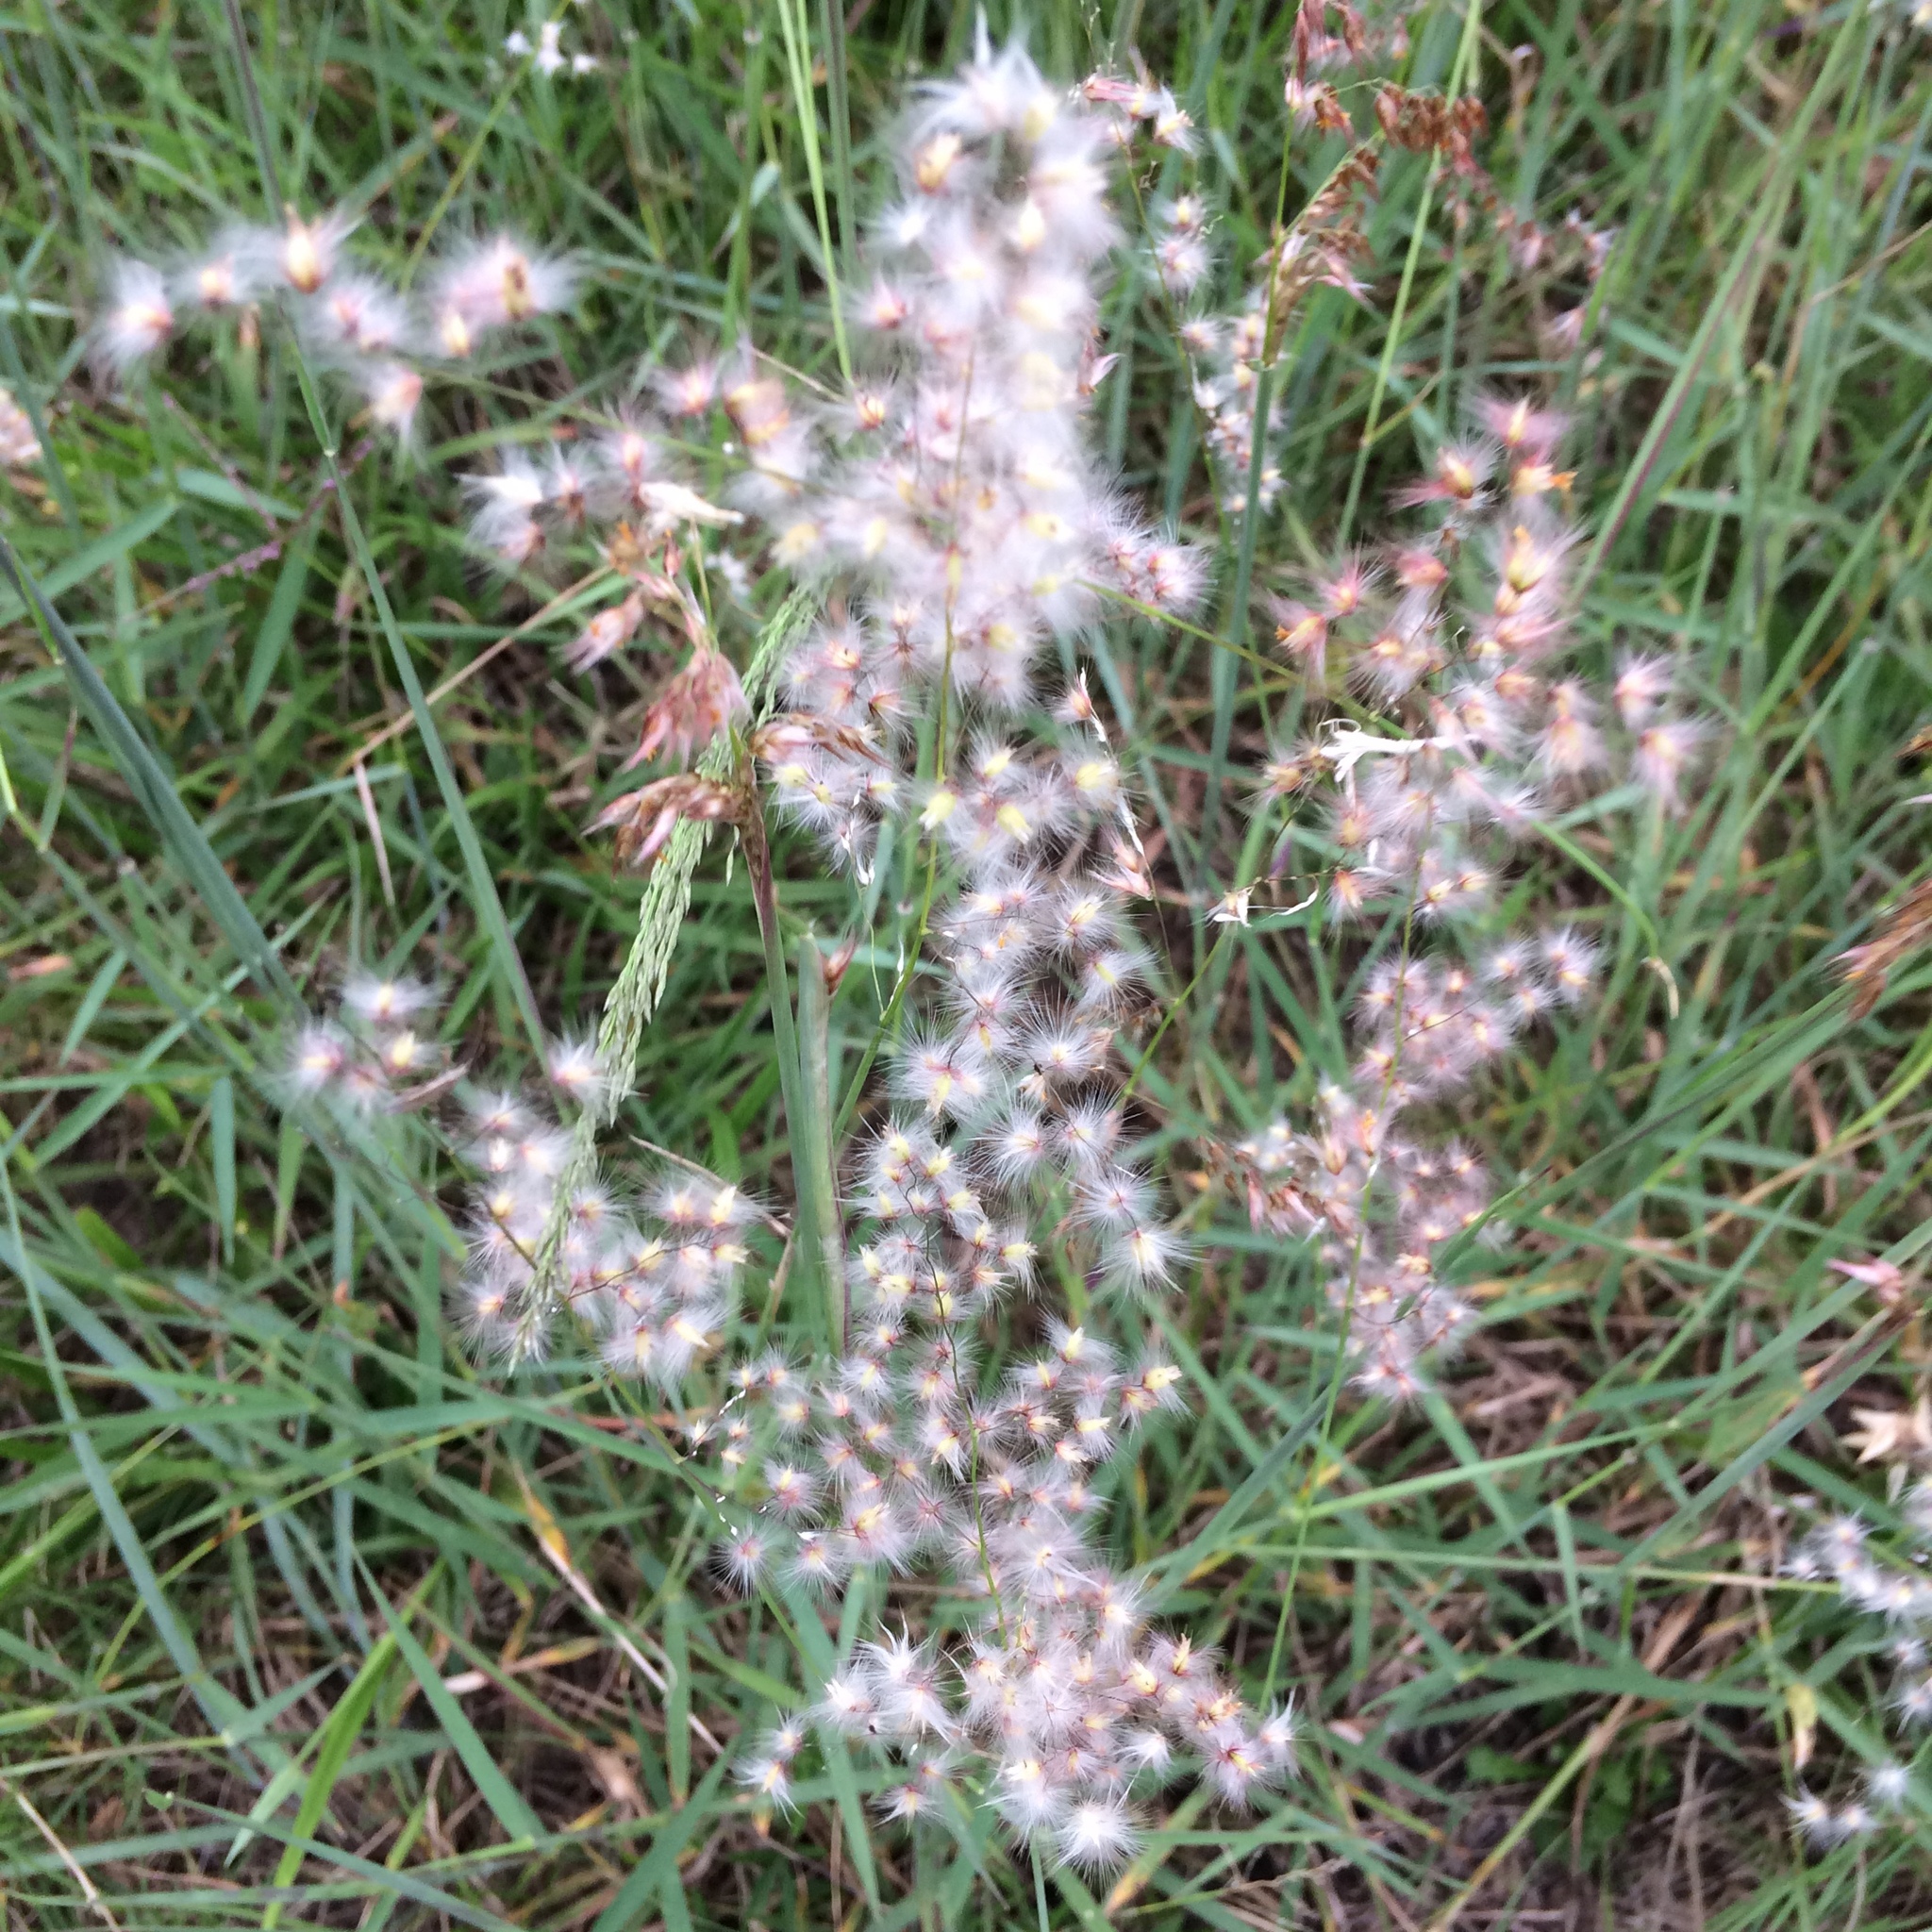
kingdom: Plantae
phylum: Tracheophyta
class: Liliopsida
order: Poales
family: Poaceae
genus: Melinis
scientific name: Melinis repens
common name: Rose natal grass
